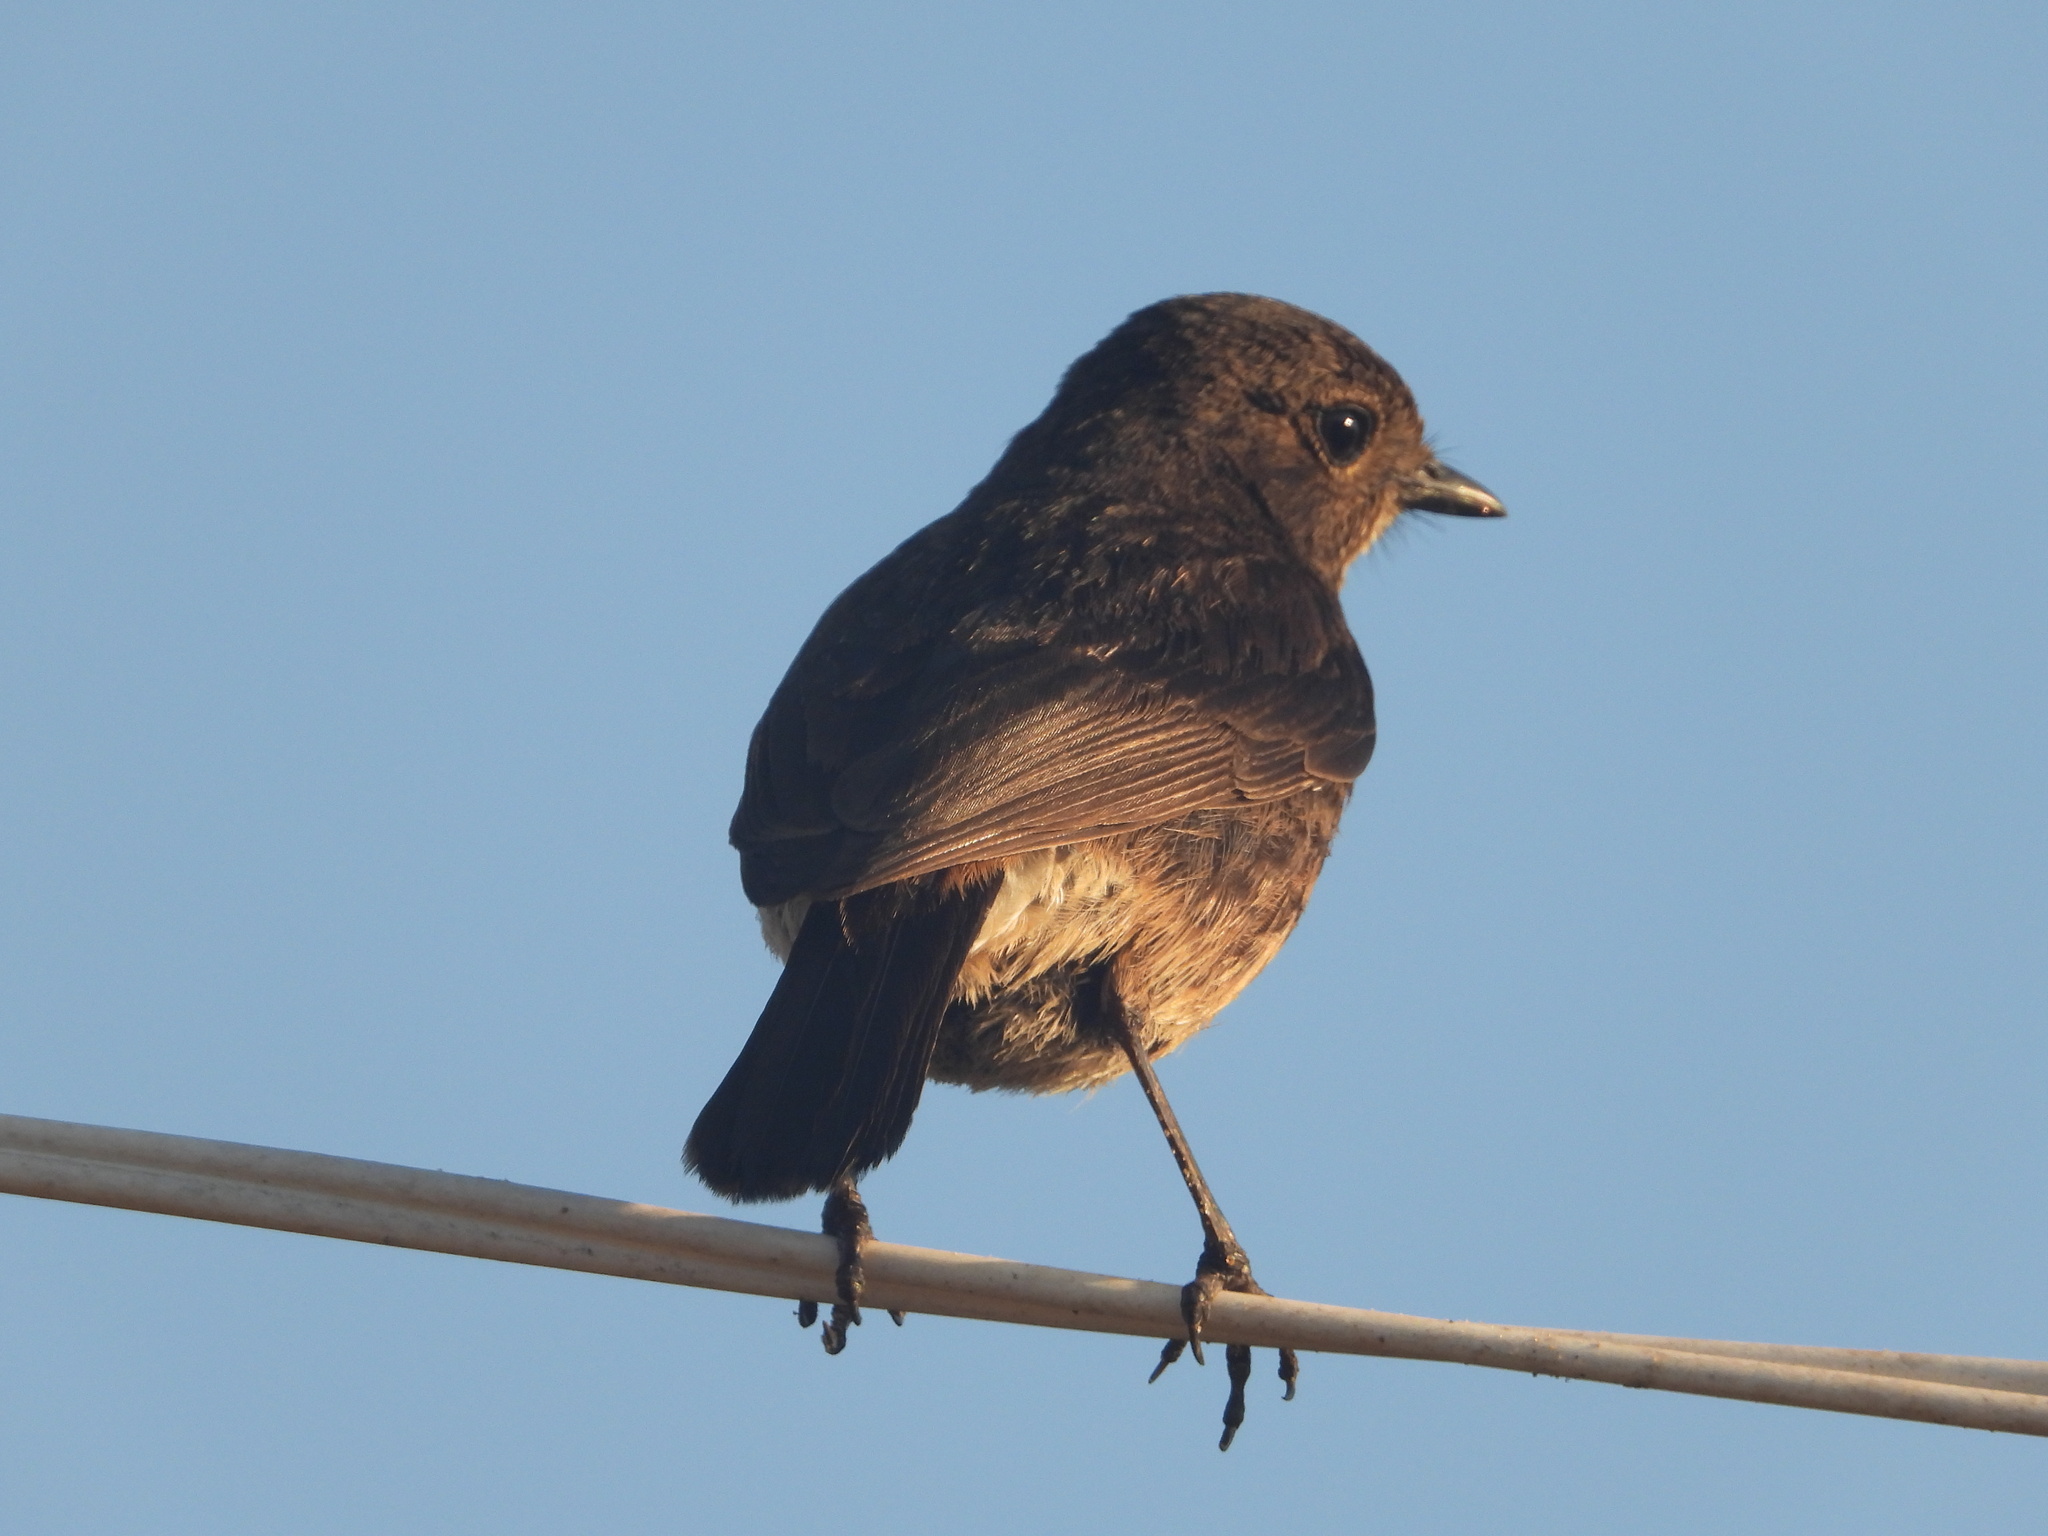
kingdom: Animalia
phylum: Chordata
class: Aves
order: Passeriformes
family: Muscicapidae
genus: Saxicola
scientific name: Saxicola caprata
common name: Pied bush chat
